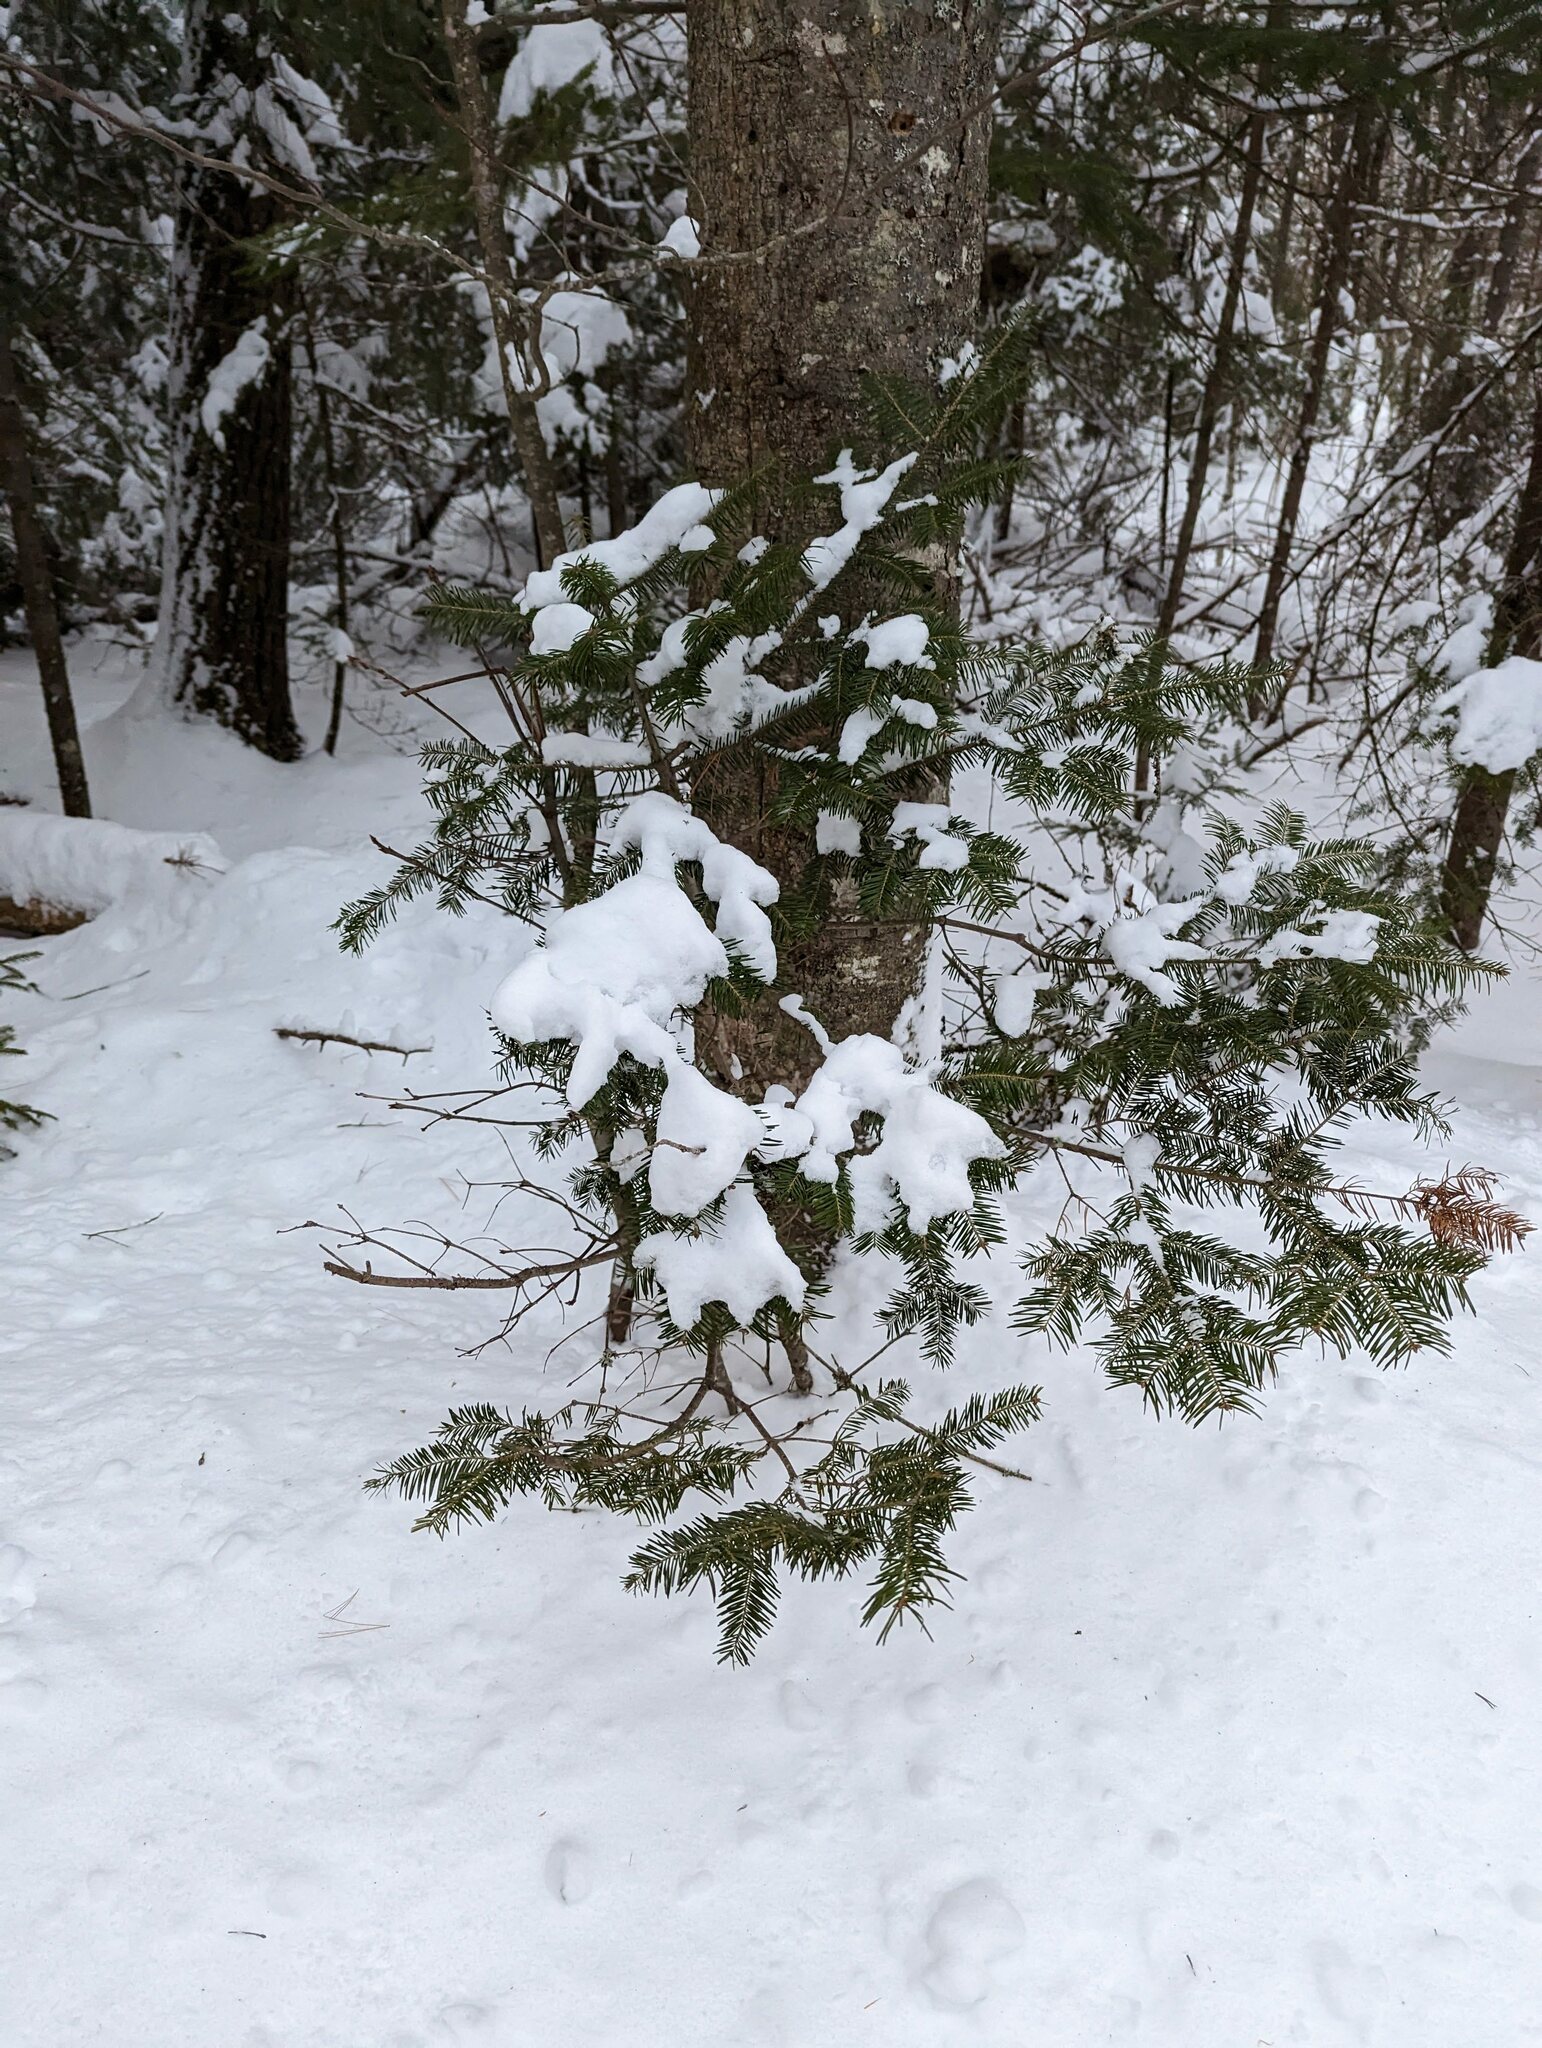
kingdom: Plantae
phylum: Tracheophyta
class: Pinopsida
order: Pinales
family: Pinaceae
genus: Abies
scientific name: Abies balsamea
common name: Balsam fir
